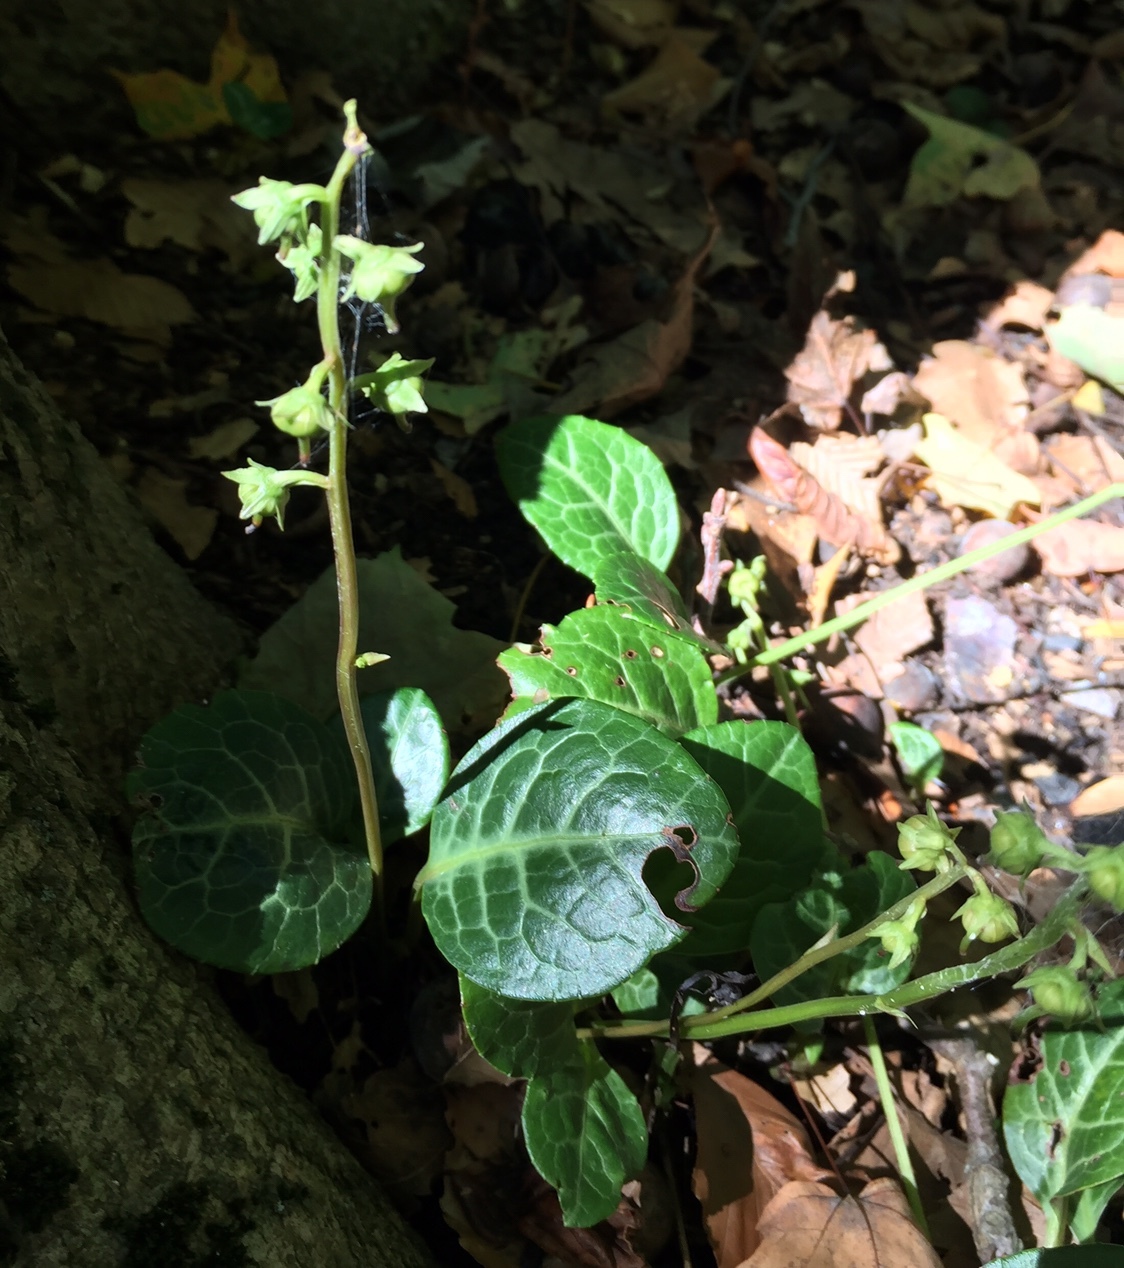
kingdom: Plantae
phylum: Tracheophyta
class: Magnoliopsida
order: Ericales
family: Ericaceae
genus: Pyrola
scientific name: Pyrola americana
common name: American wintergreen
